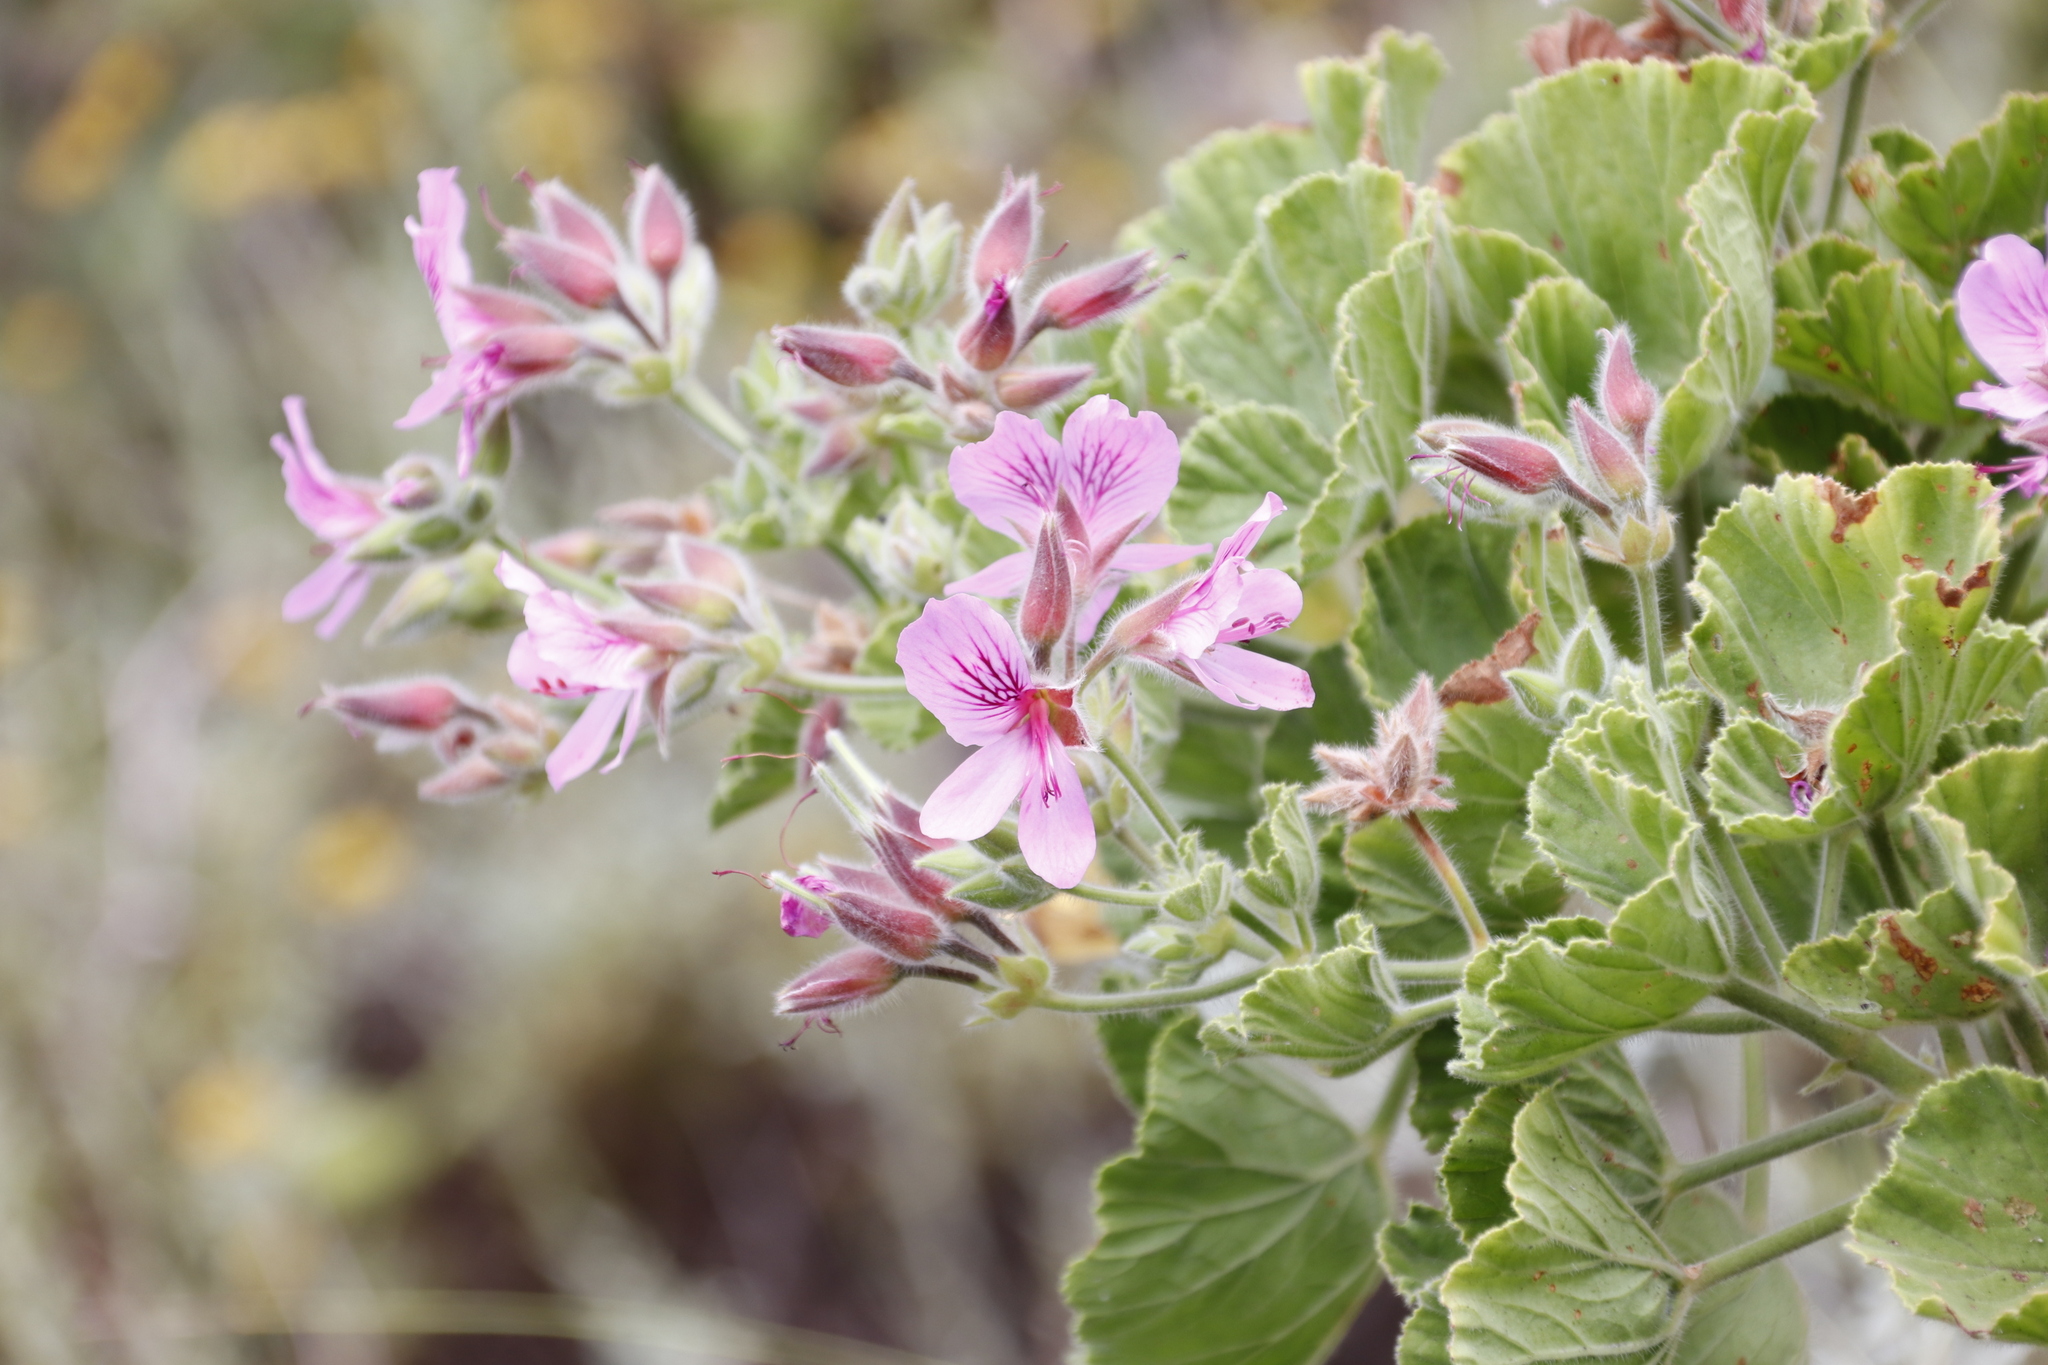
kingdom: Plantae
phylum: Tracheophyta
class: Magnoliopsida
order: Geraniales
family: Geraniaceae
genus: Pelargonium
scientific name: Pelargonium cucullatum
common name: Tree pelargonium
